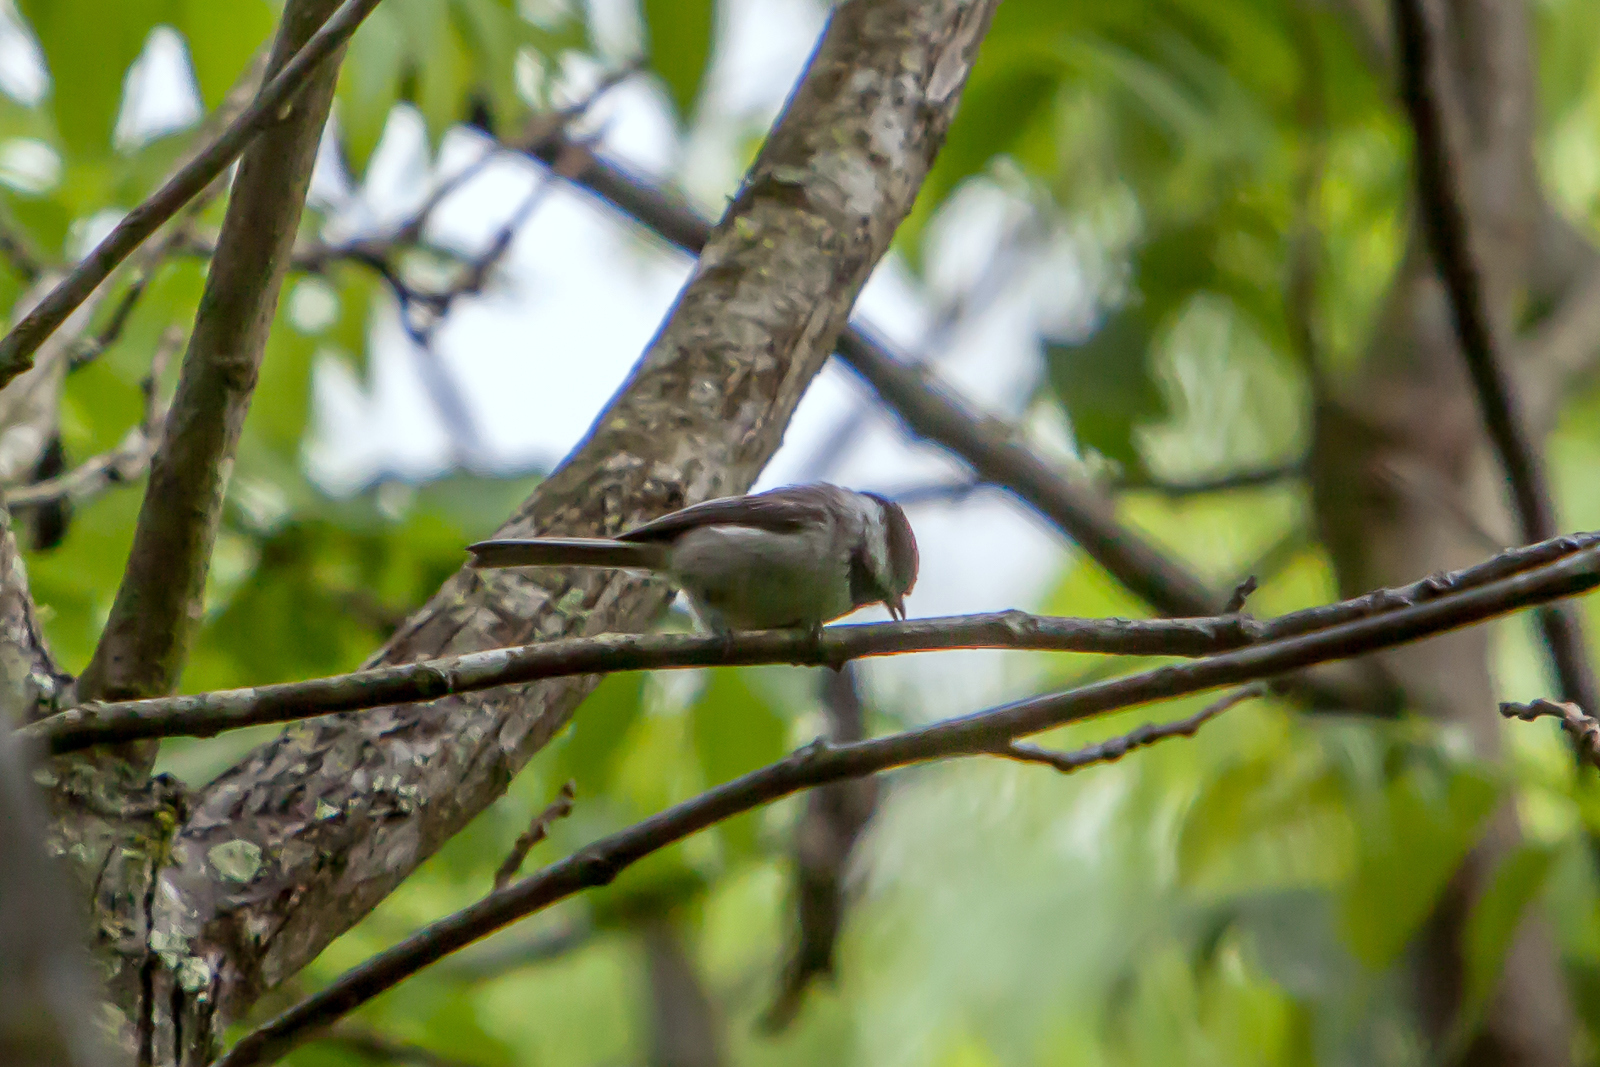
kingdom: Animalia
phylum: Chordata
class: Aves
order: Passeriformes
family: Paridae
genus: Poecile
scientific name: Poecile carolinensis
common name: Carolina chickadee
